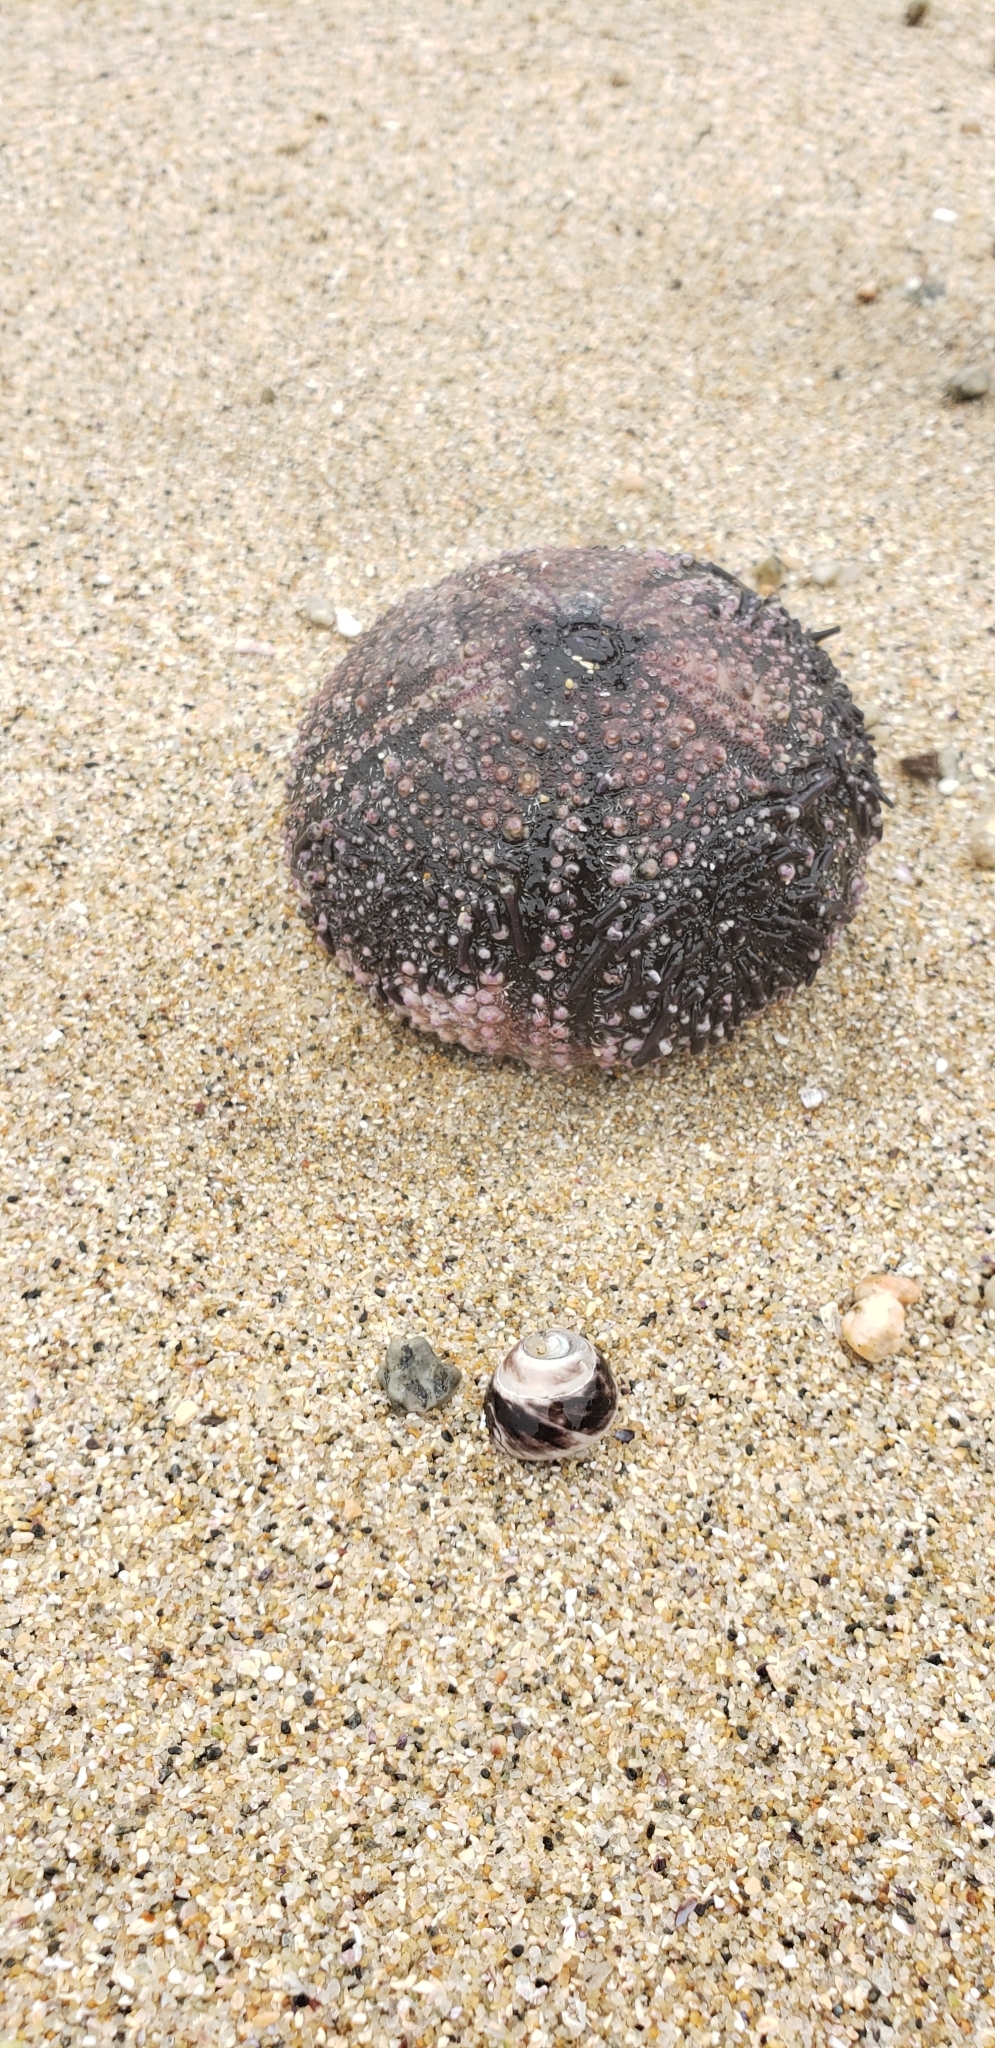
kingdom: Animalia
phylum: Echinodermata
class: Echinoidea
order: Arbacioida
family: Arbaciidae
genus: Tetrapygus
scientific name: Tetrapygus niger
